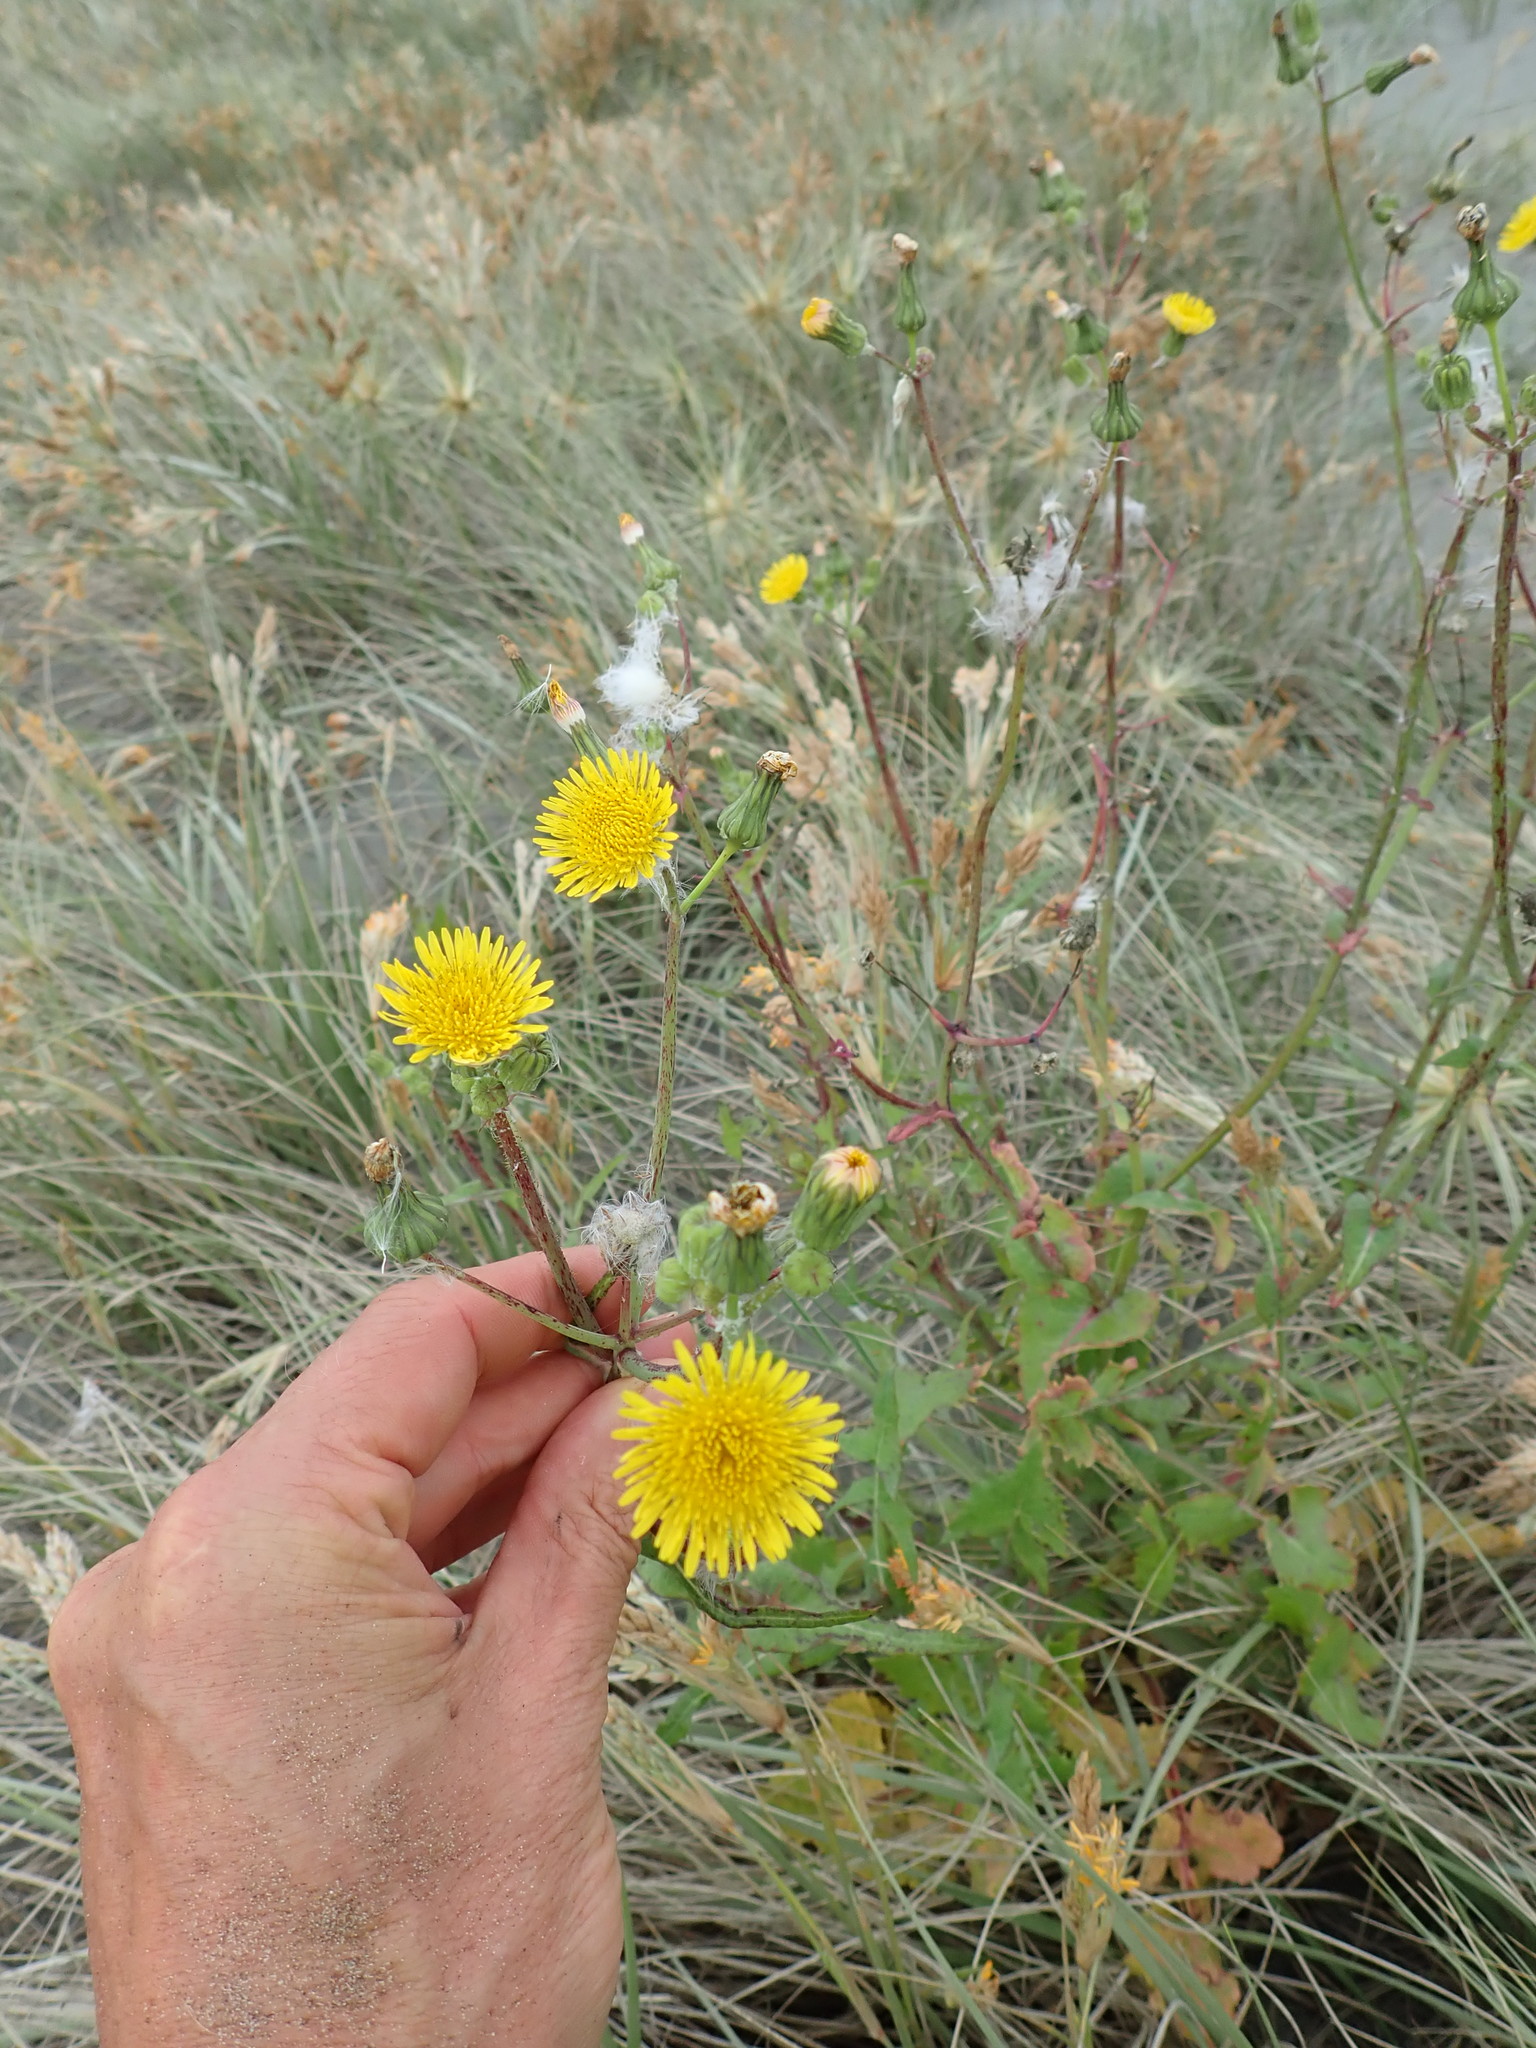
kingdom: Plantae
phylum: Tracheophyta
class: Magnoliopsida
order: Asterales
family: Asteraceae
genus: Sonchus
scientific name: Sonchus oleraceus
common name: Common sowthistle
